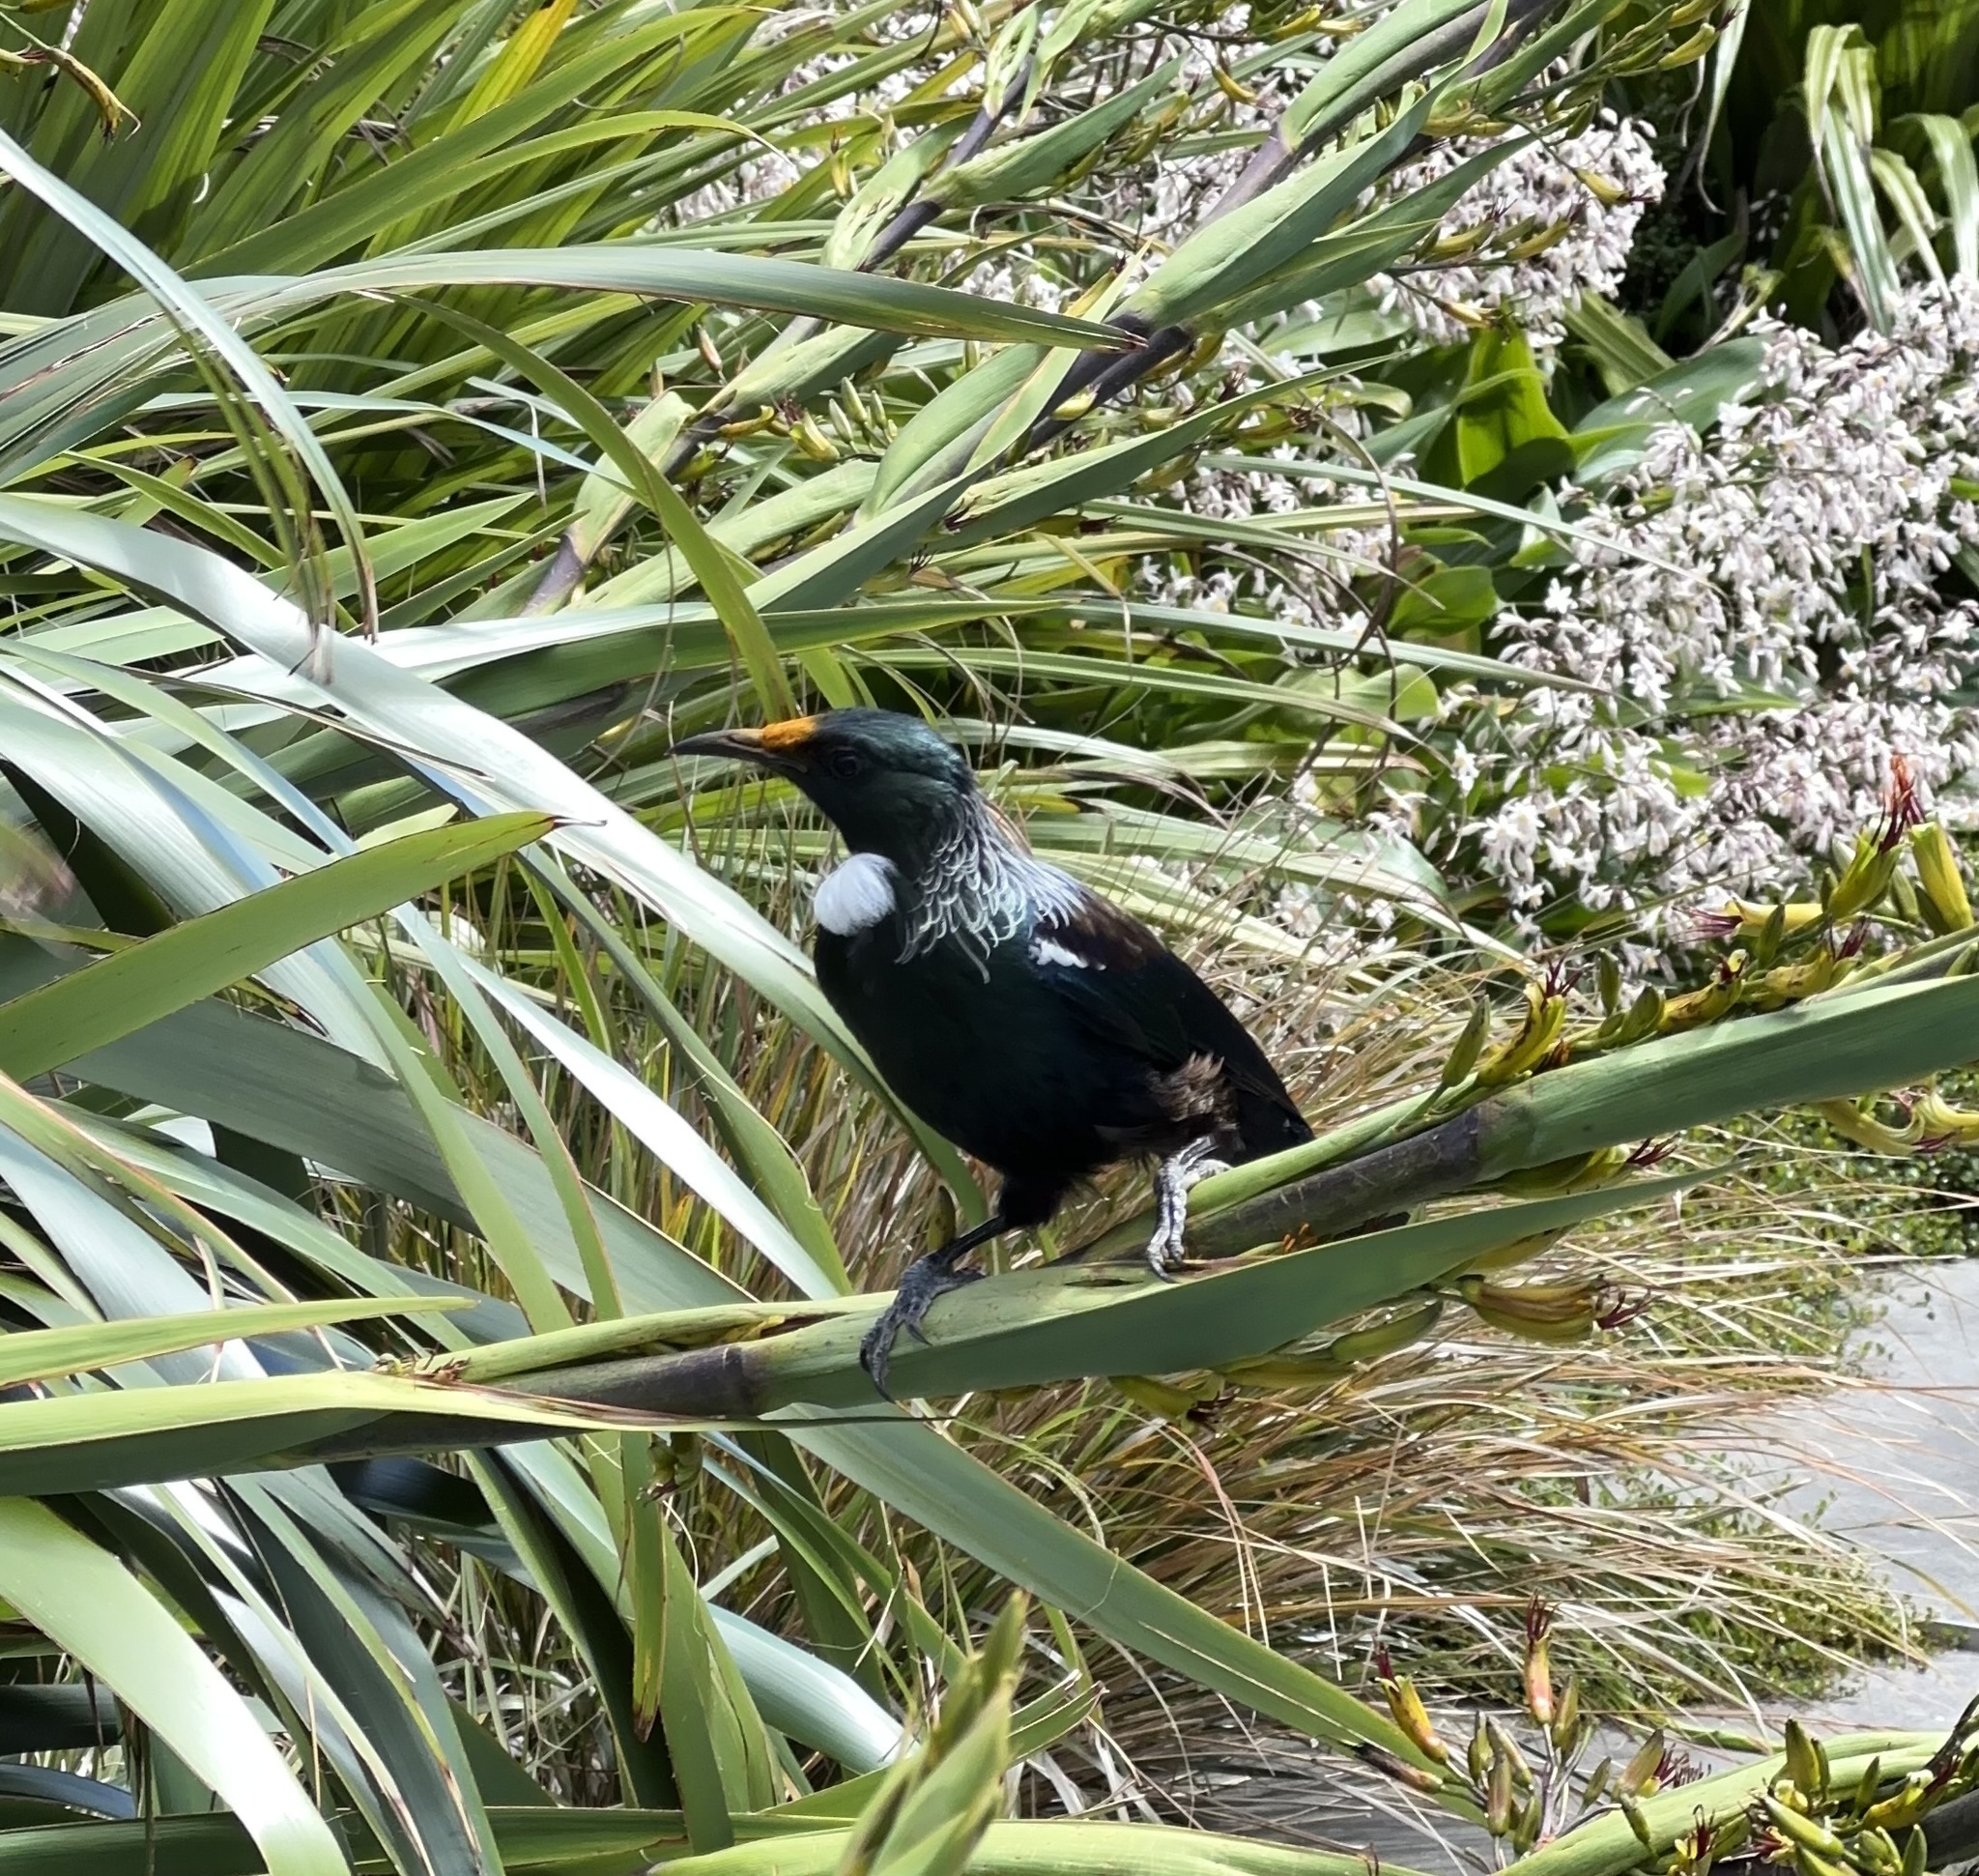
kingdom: Animalia
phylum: Chordata
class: Aves
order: Passeriformes
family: Meliphagidae
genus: Prosthemadera
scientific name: Prosthemadera novaeseelandiae
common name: Tui
